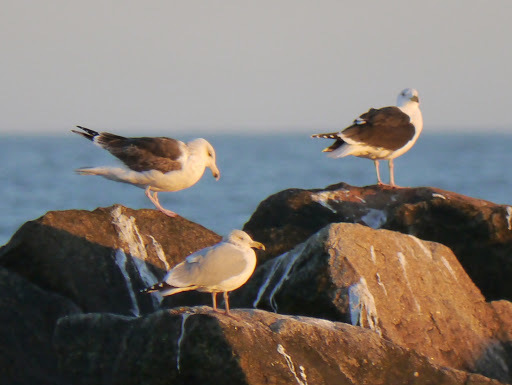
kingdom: Animalia
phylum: Chordata
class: Aves
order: Charadriiformes
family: Laridae
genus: Larus
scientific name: Larus argentatus
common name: Herring gull
